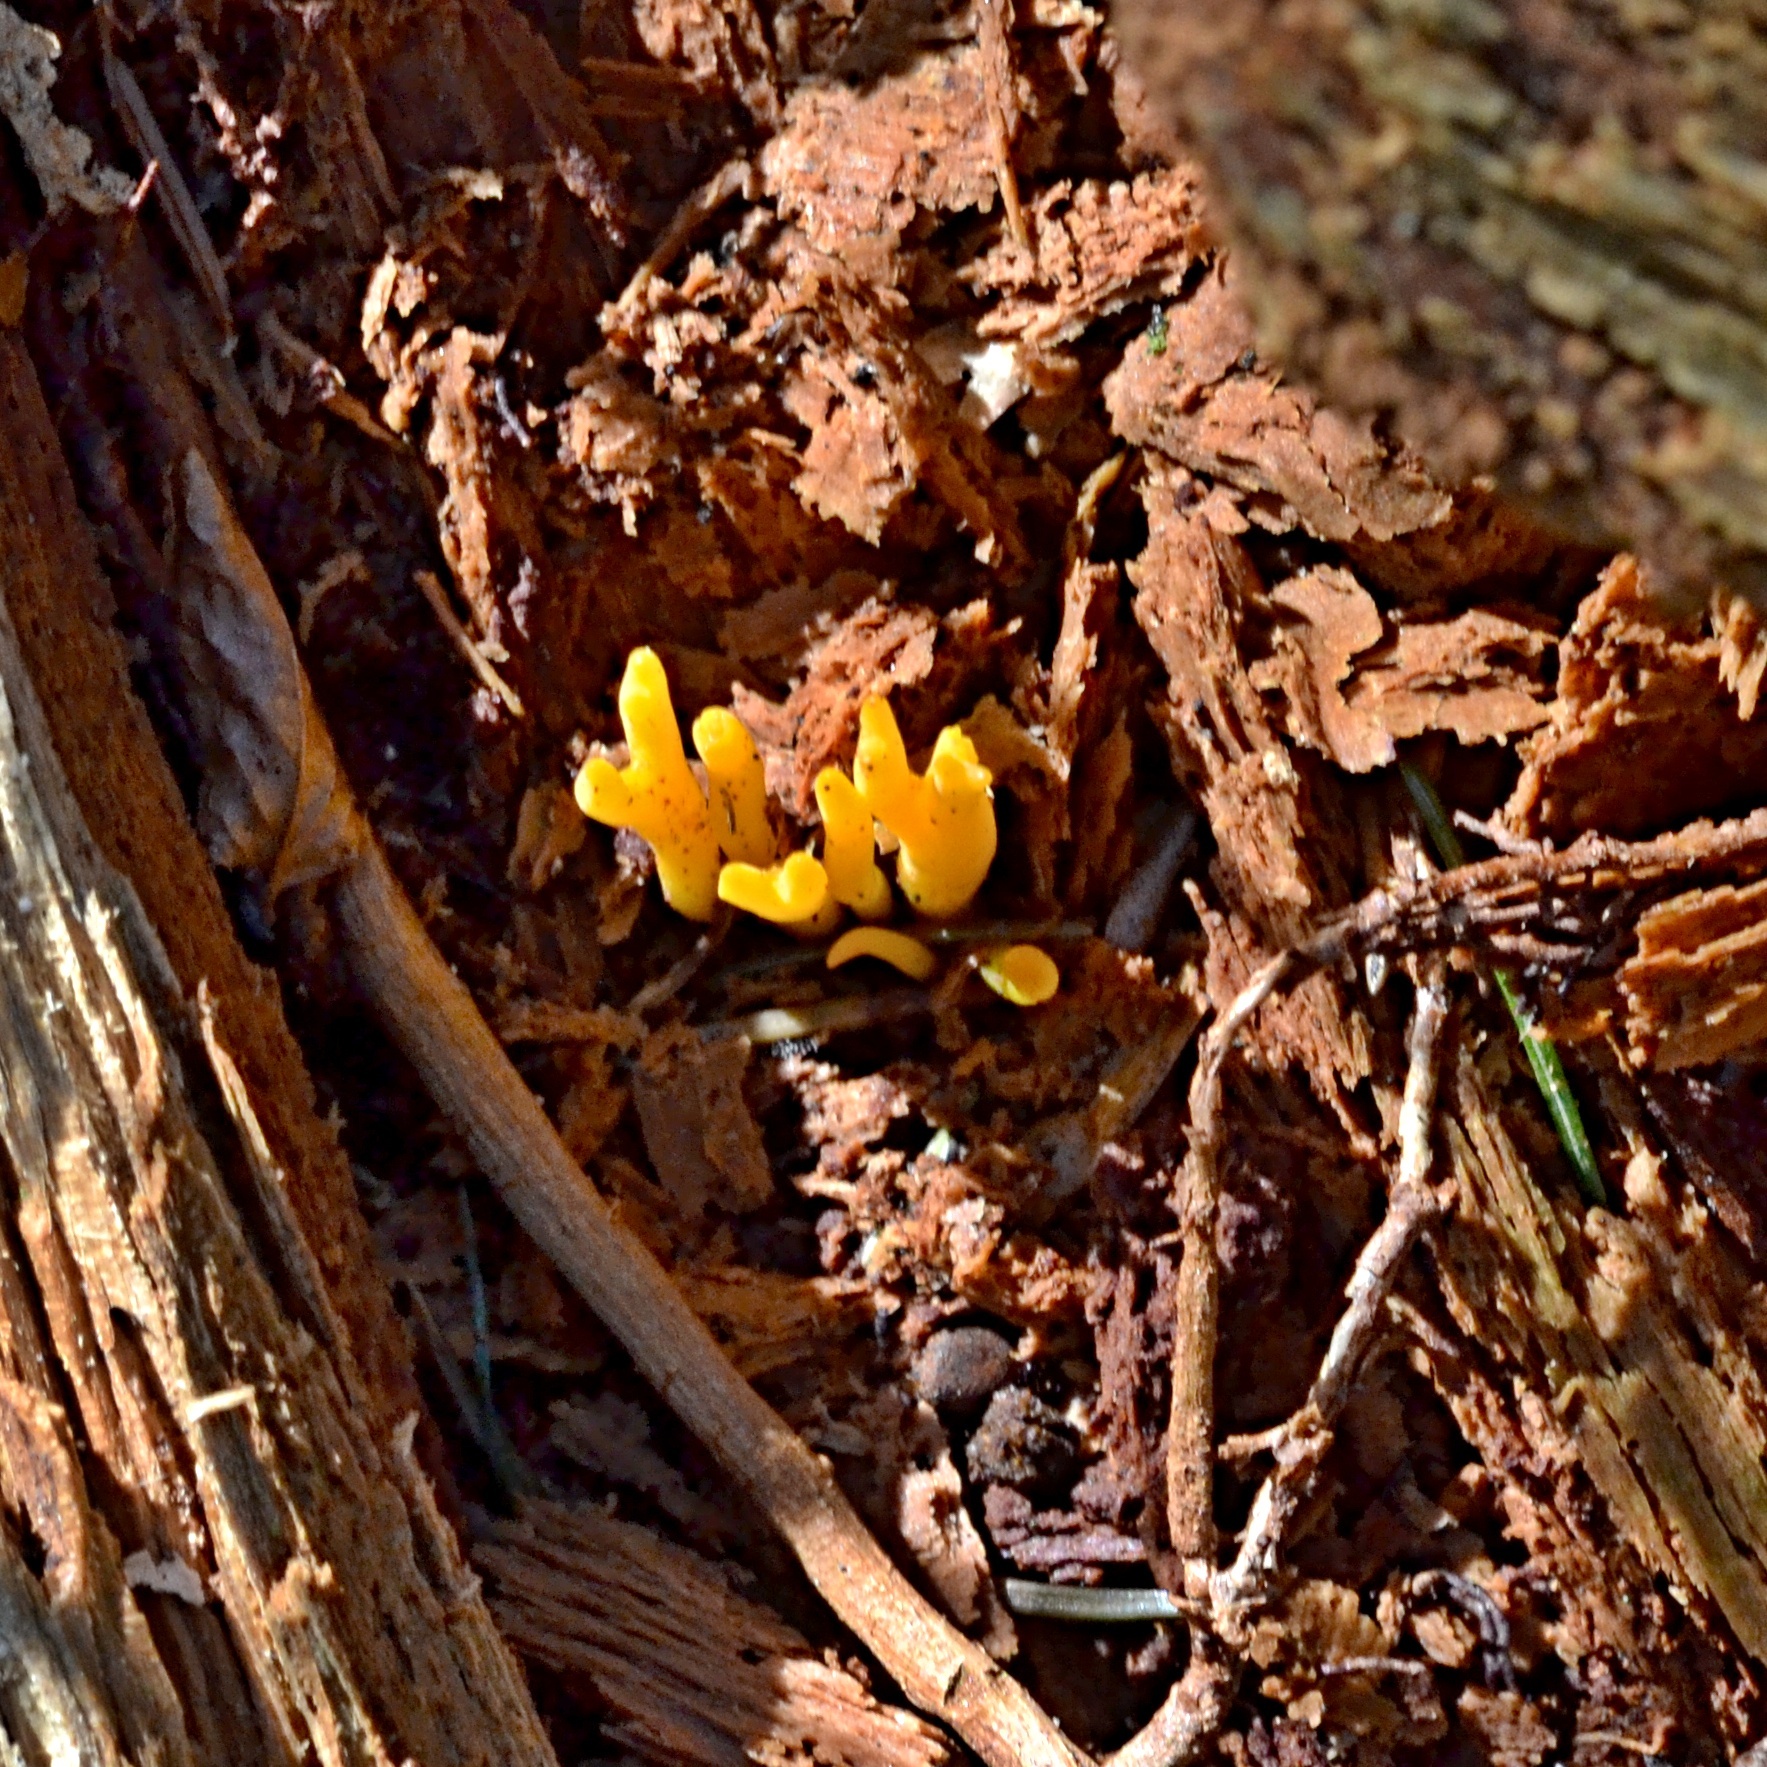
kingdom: Fungi
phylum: Basidiomycota
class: Dacrymycetes
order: Dacrymycetales
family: Dacrymycetaceae
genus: Calocera
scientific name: Calocera viscosa
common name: Yellow stagshorn
